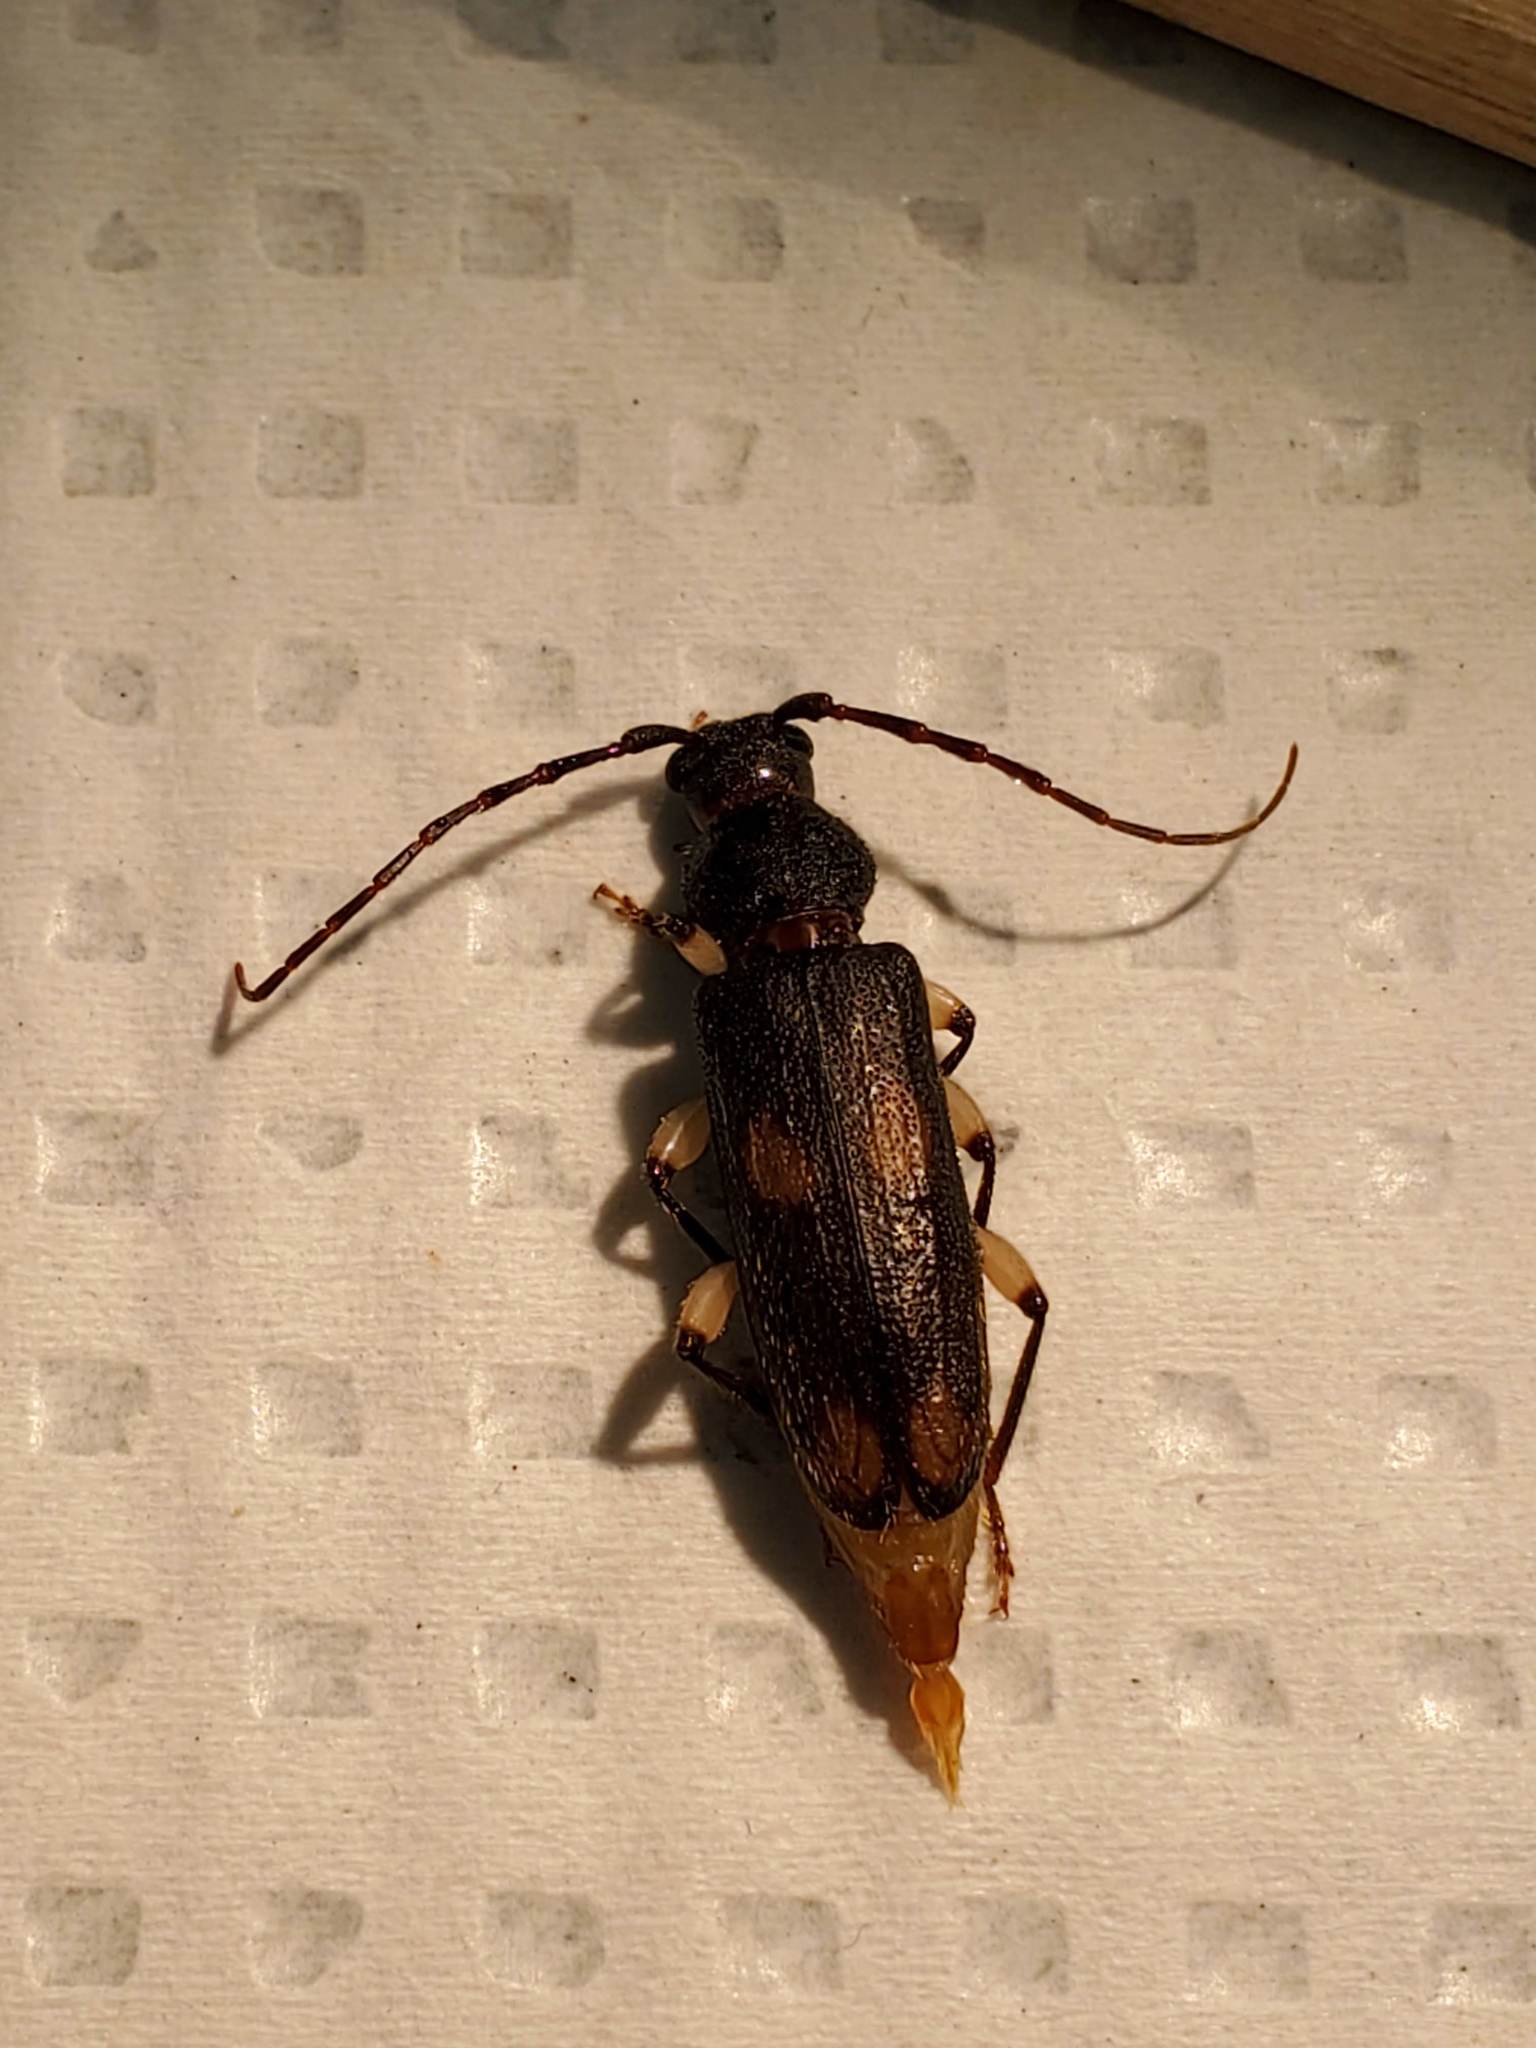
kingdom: Animalia
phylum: Arthropoda
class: Insecta
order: Coleoptera
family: Cerambycidae
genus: Tylonotus
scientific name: Tylonotus bimaculatus
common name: Ash and privet borer
